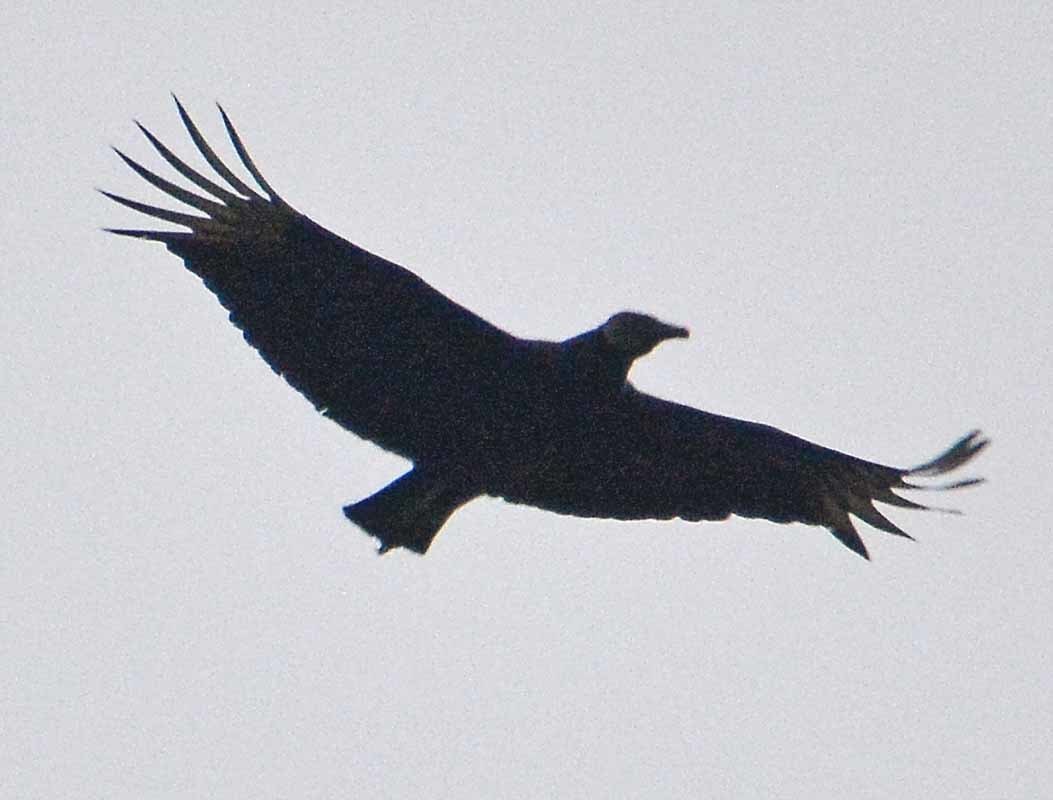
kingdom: Animalia
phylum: Chordata
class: Aves
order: Accipitriformes
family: Cathartidae
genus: Coragyps
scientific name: Coragyps atratus
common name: Black vulture
